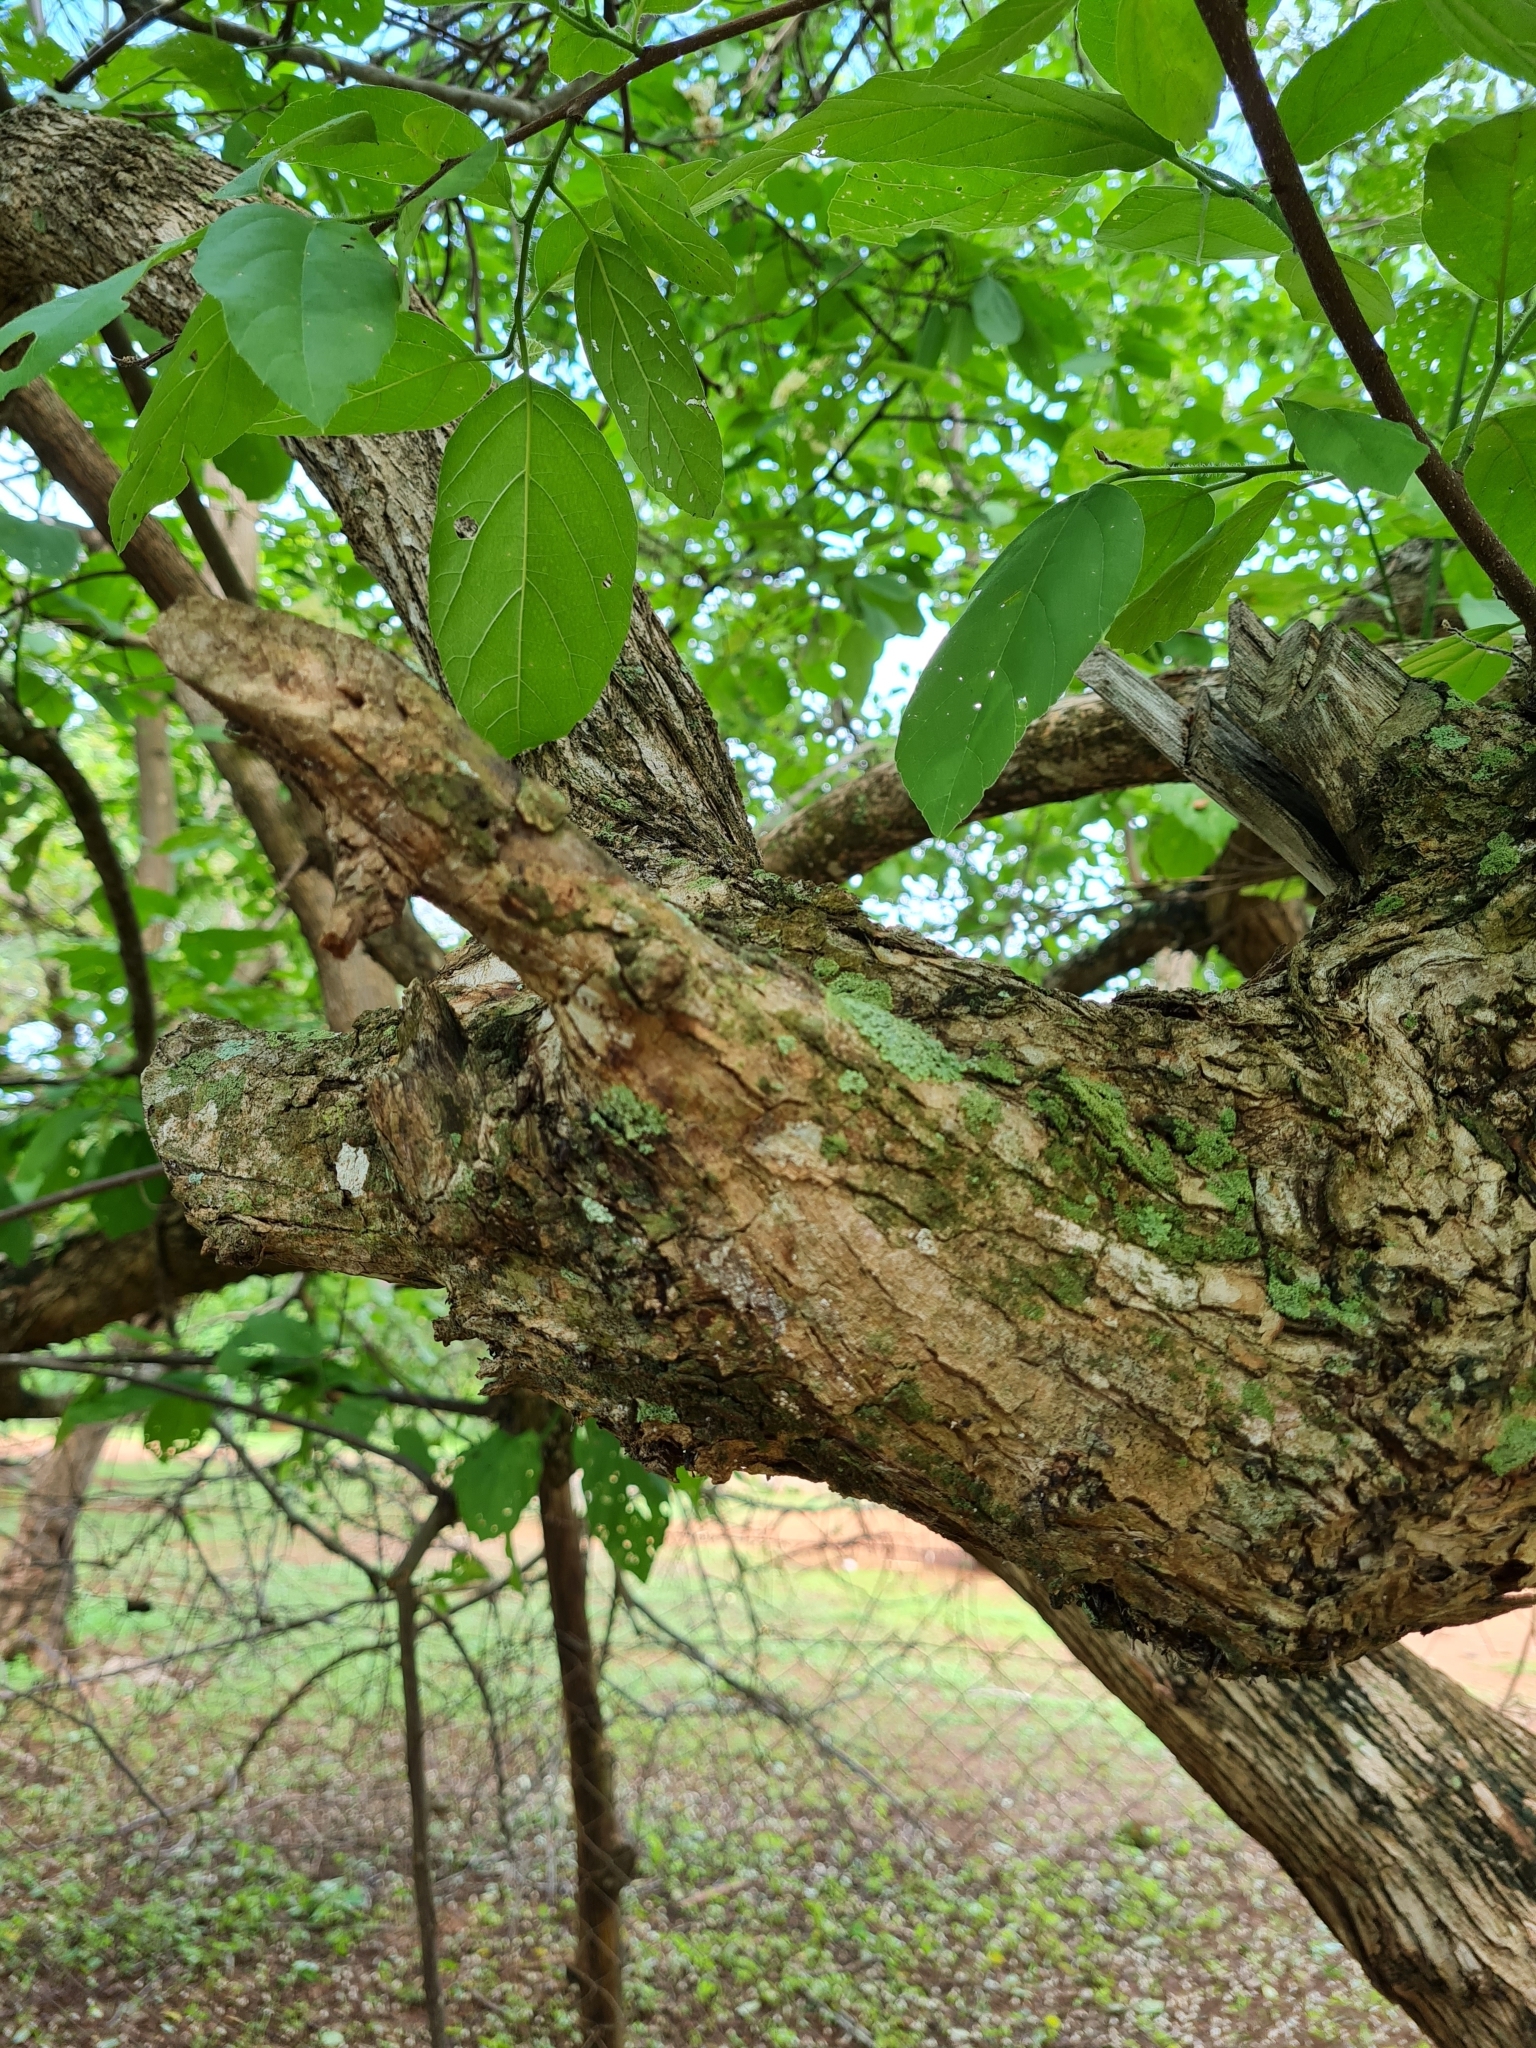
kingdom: Plantae
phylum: Tracheophyta
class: Magnoliopsida
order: Boraginales
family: Cordiaceae
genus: Cordia
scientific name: Cordia dentata
